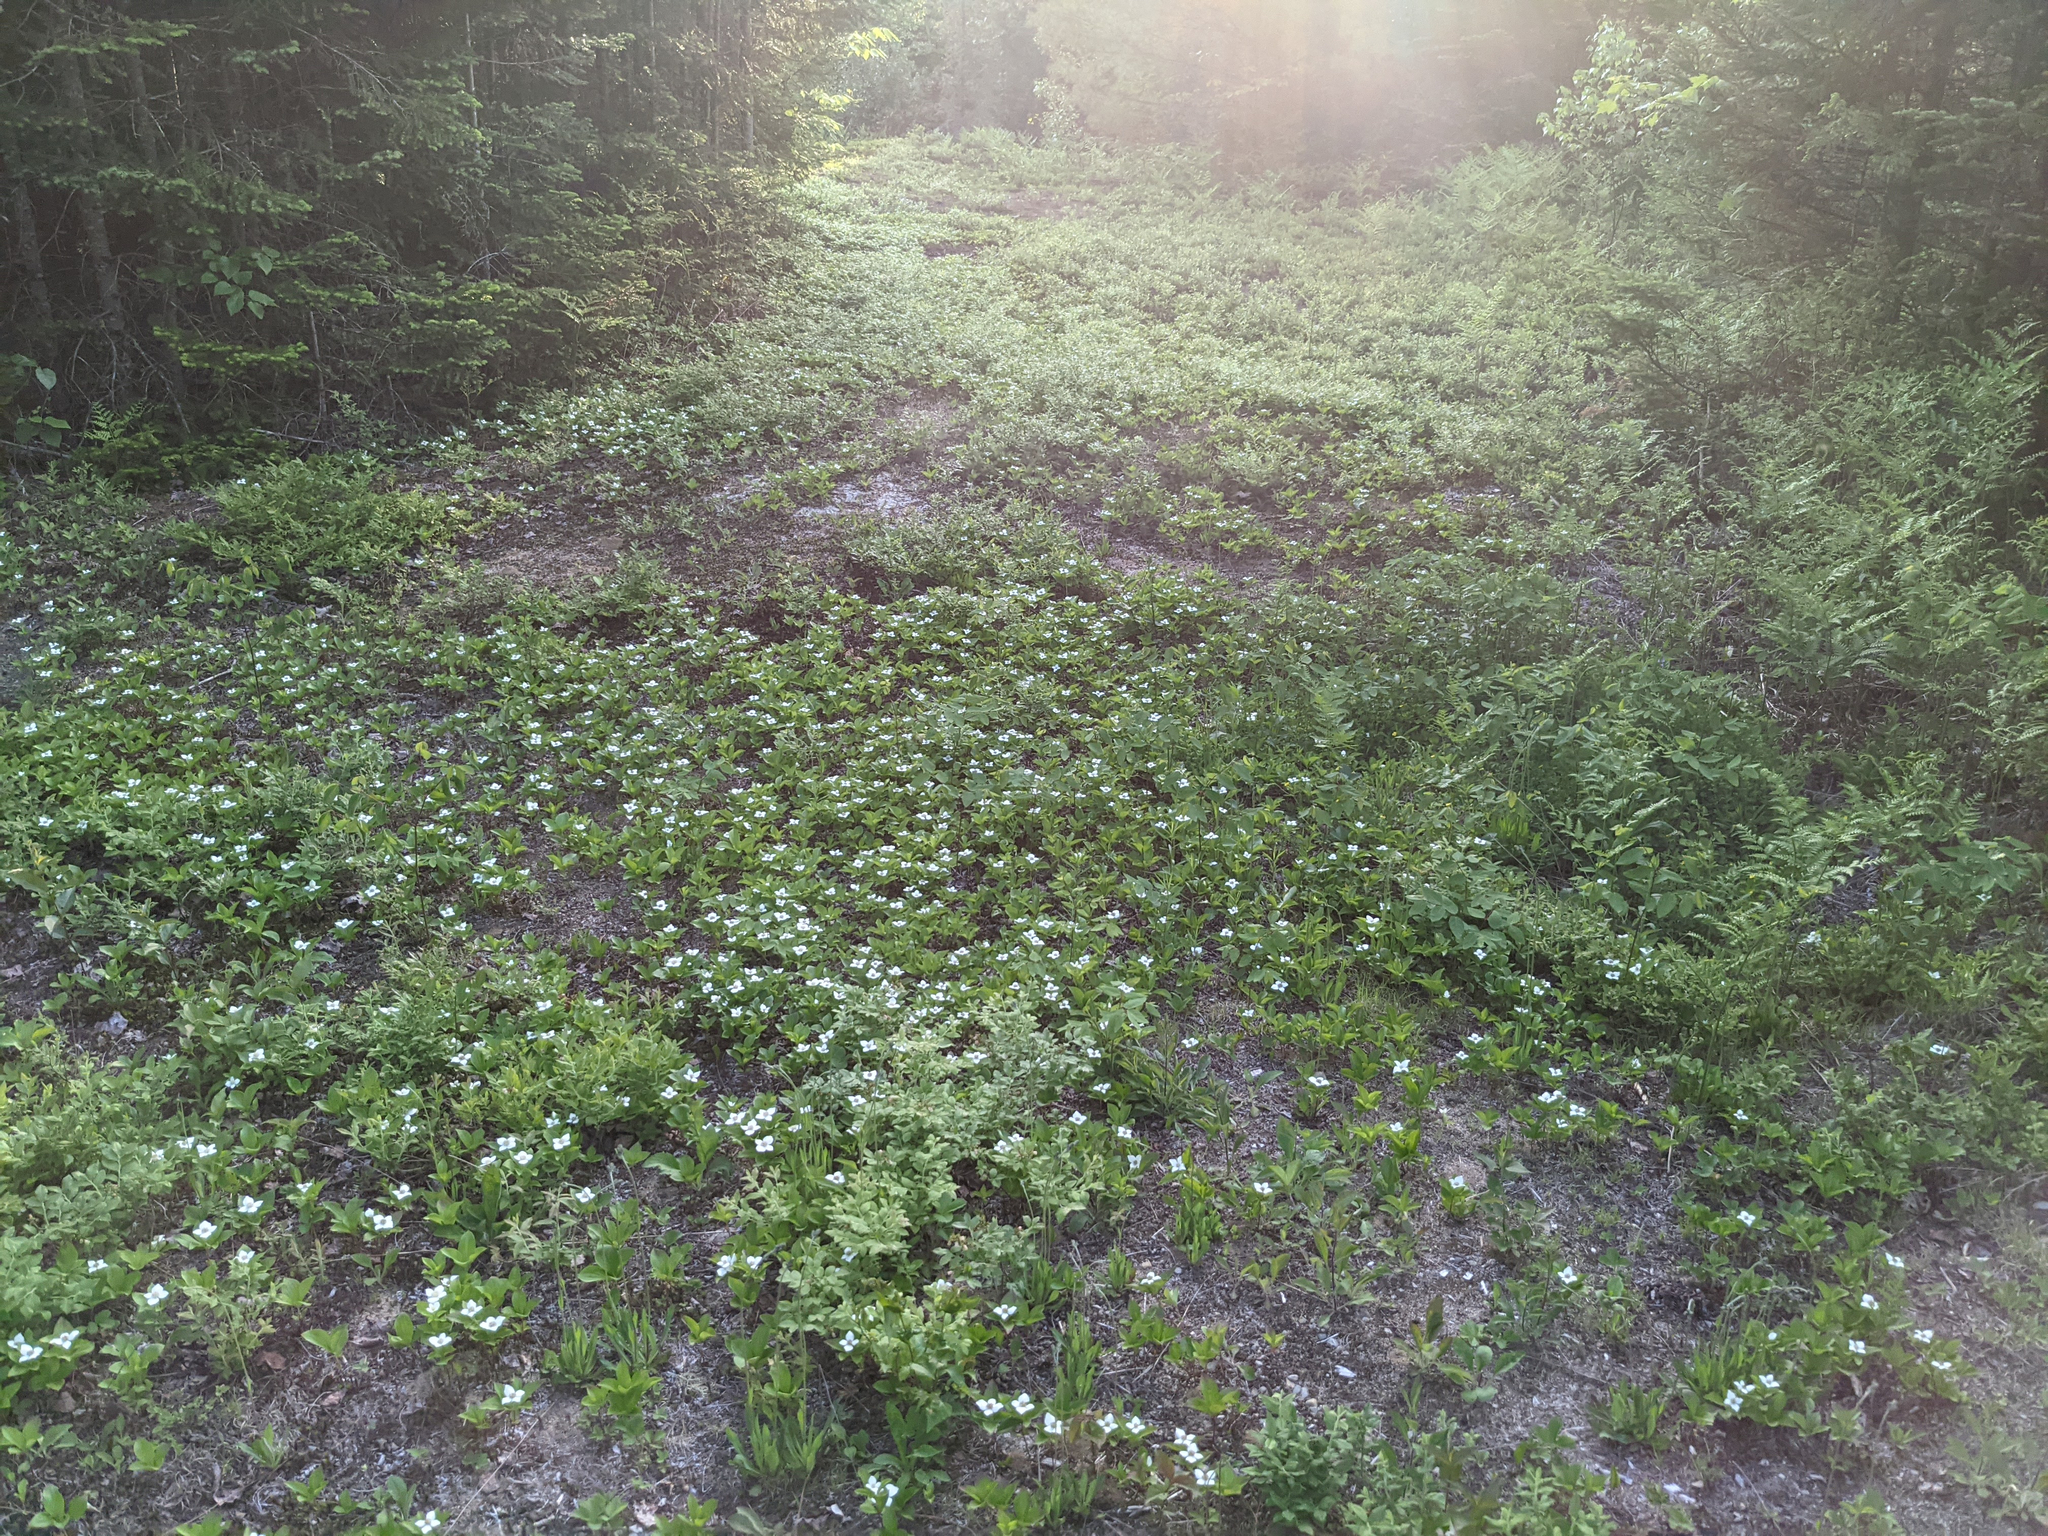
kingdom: Plantae
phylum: Tracheophyta
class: Magnoliopsida
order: Cornales
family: Cornaceae
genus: Cornus
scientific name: Cornus canadensis
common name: Creeping dogwood
